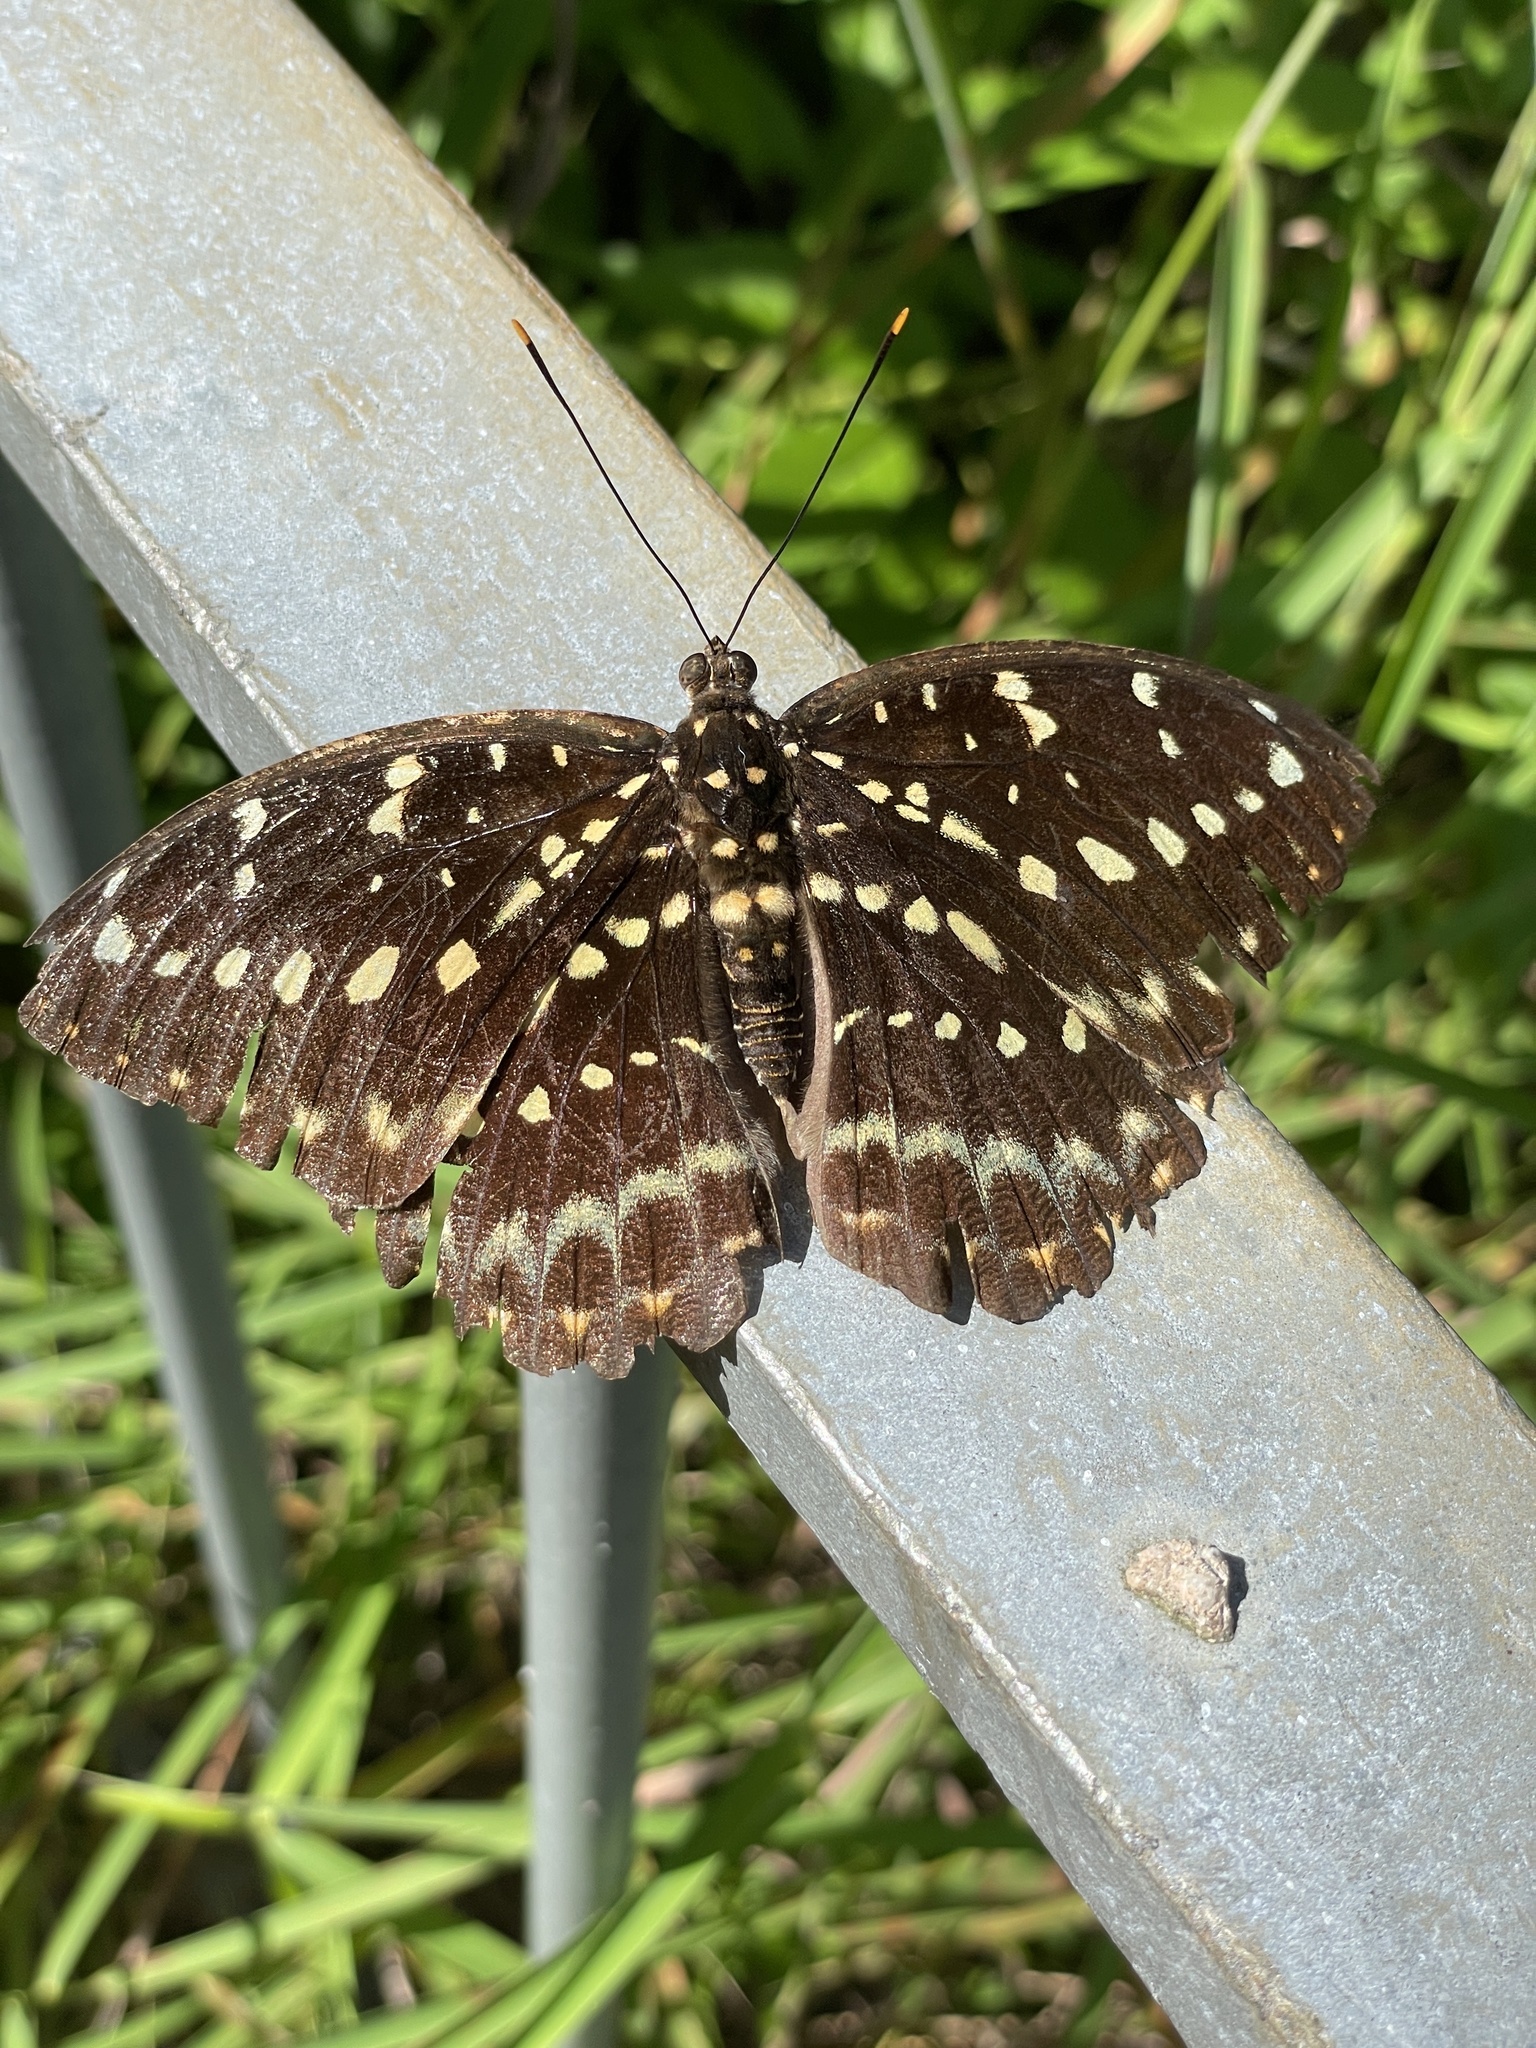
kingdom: Animalia
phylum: Arthropoda
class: Insecta
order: Lepidoptera
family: Nymphalidae
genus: Lexias
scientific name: Lexias pardalis
